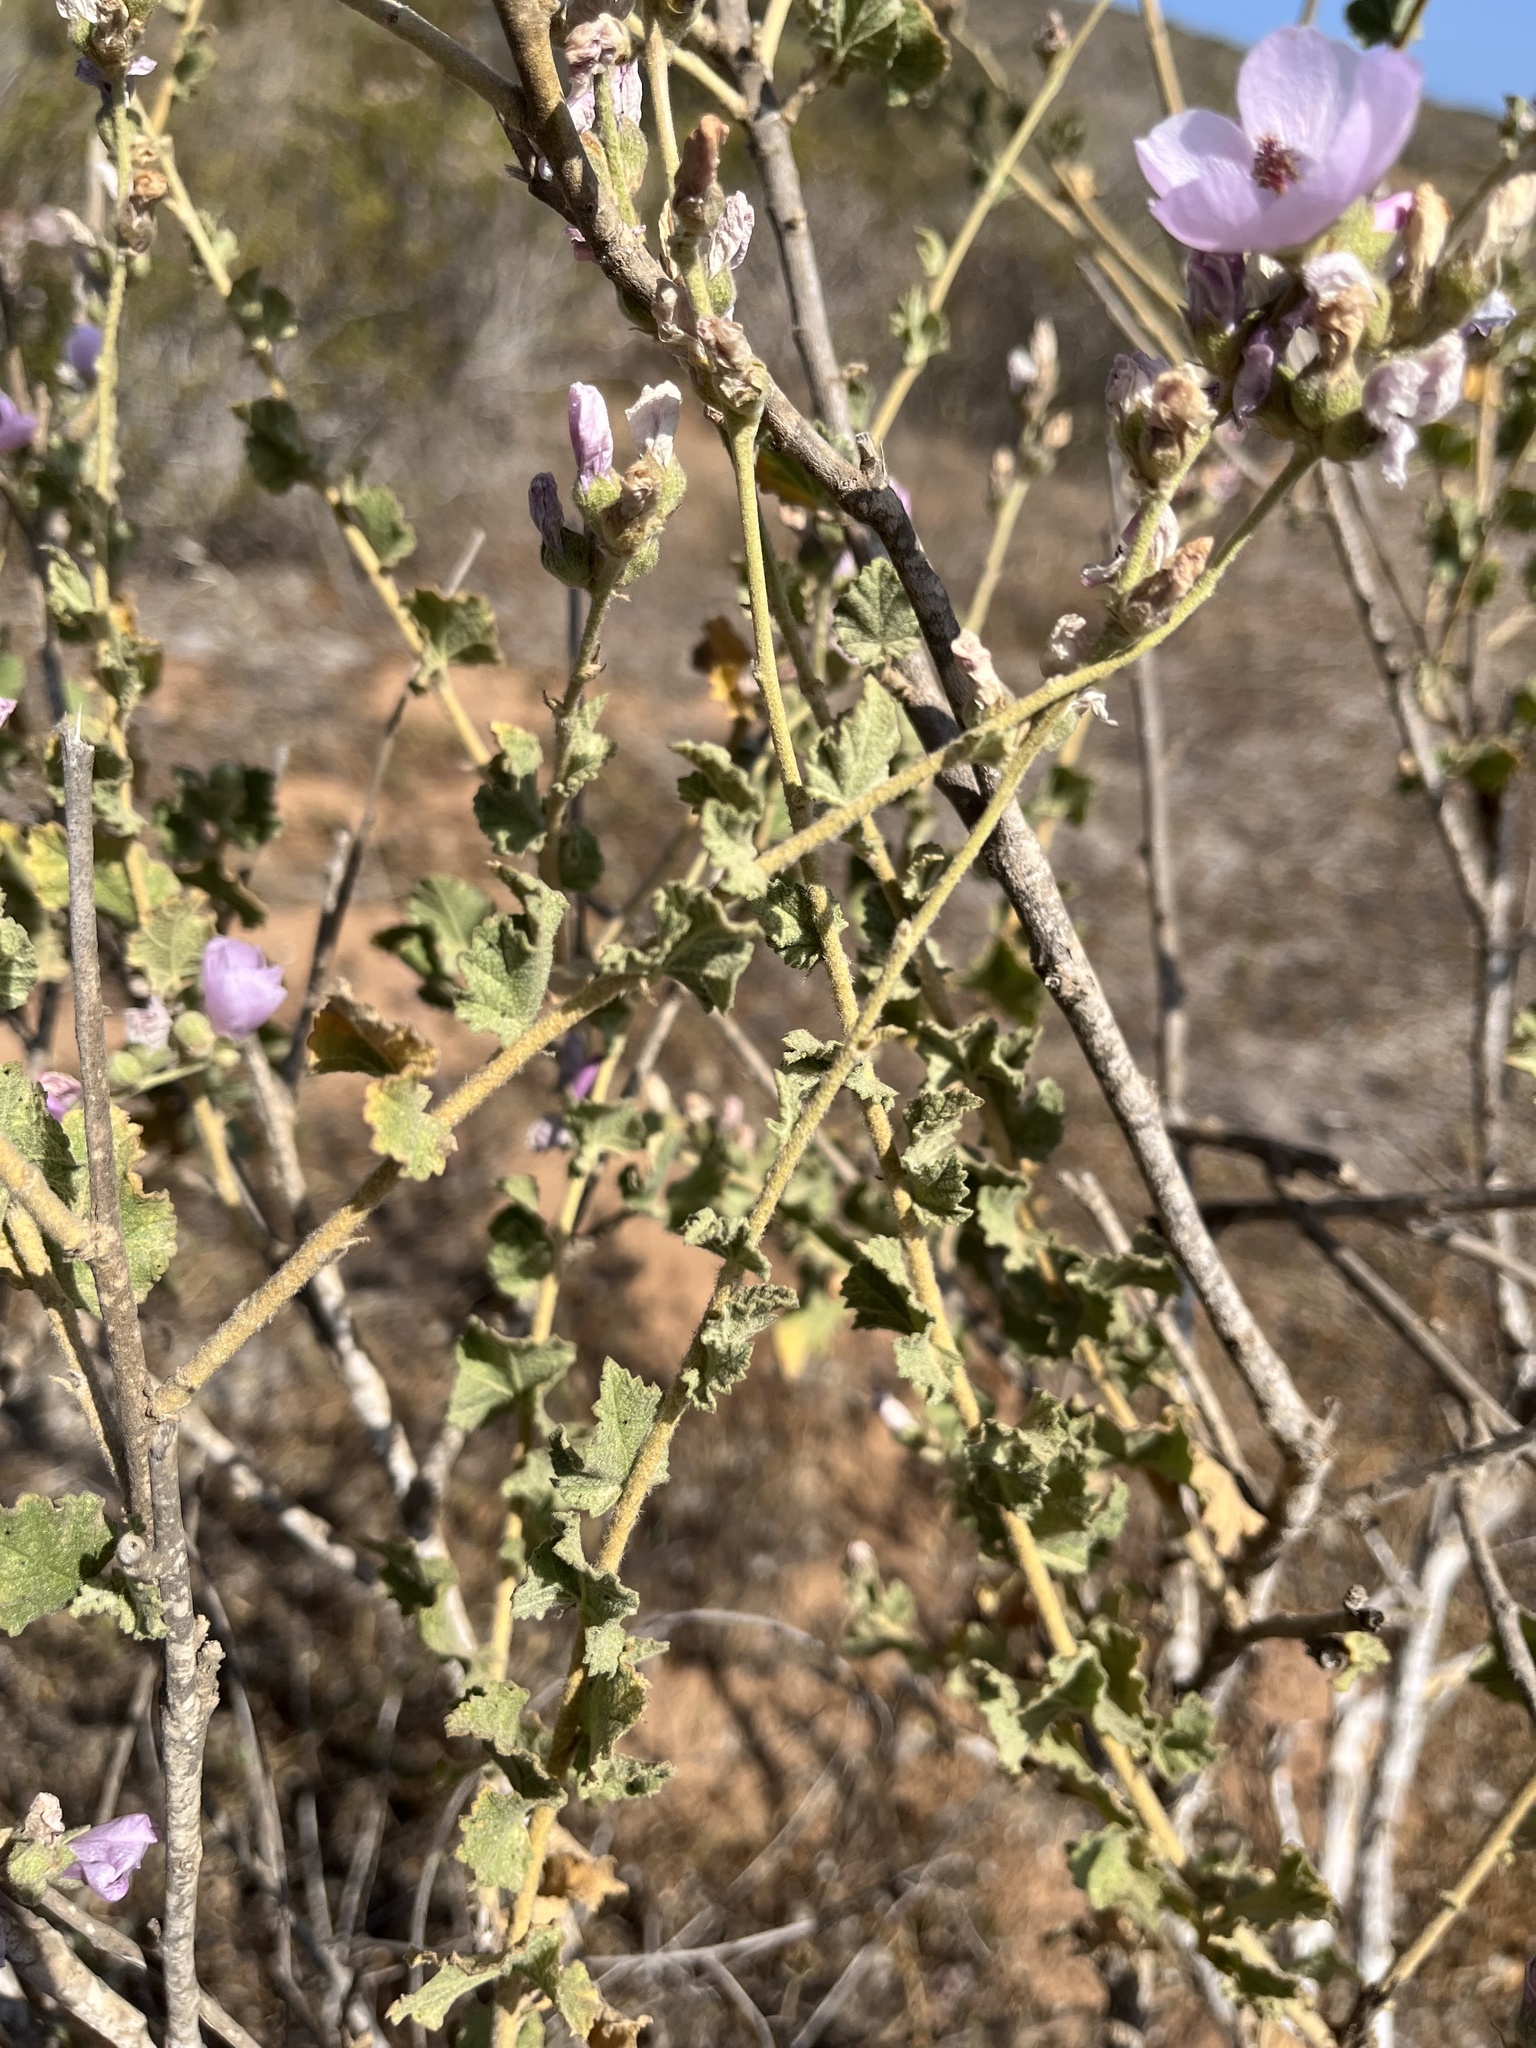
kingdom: Plantae
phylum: Tracheophyta
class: Magnoliopsida
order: Malvales
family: Malvaceae
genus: Malacothamnus
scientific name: Malacothamnus fasciculatus
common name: Sant cruz island bush-mallow
